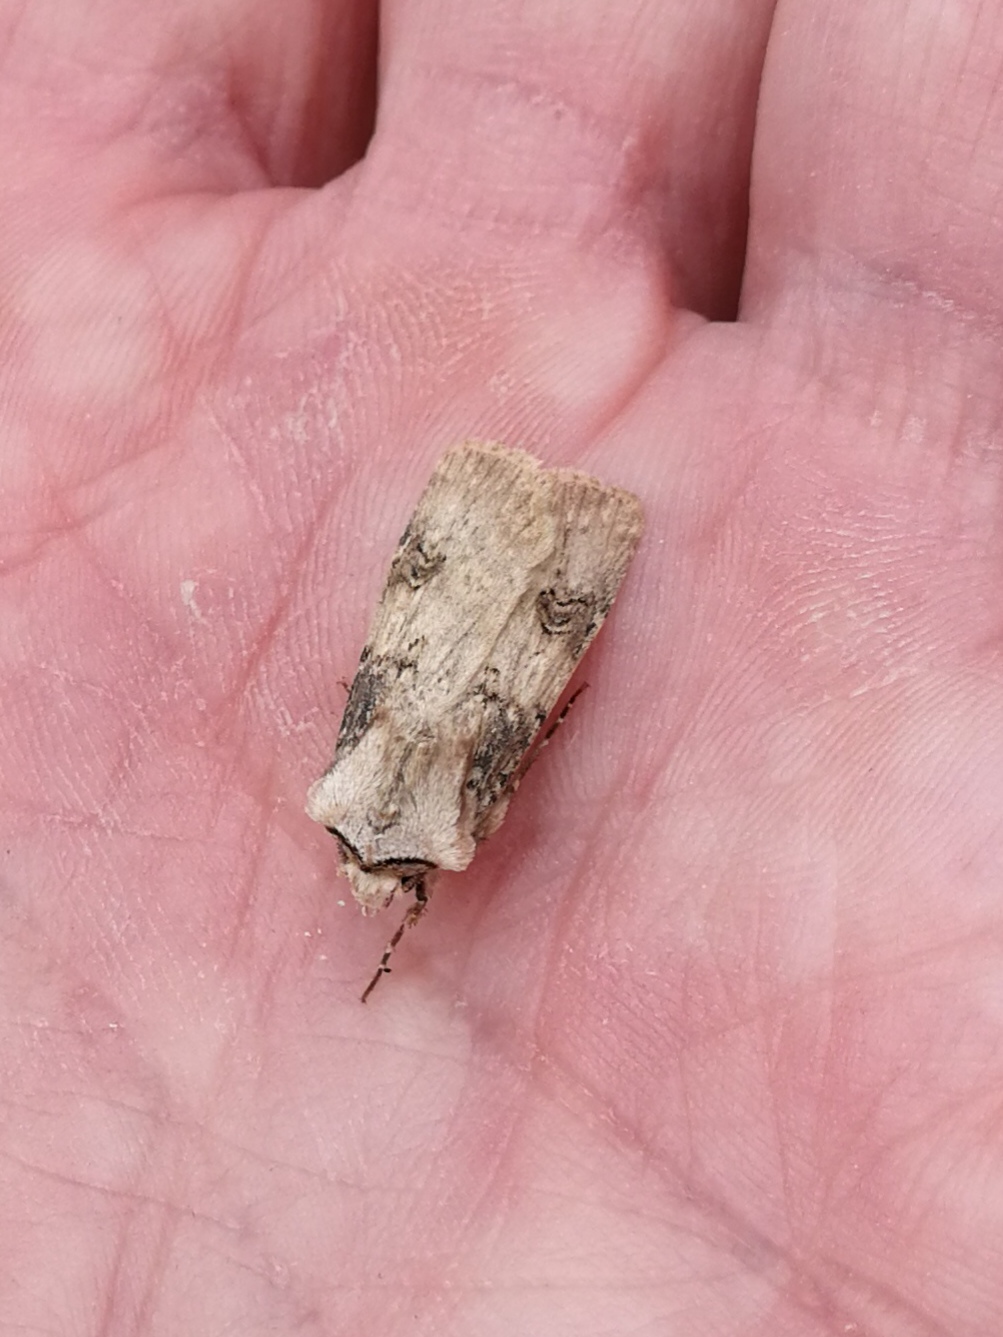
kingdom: Animalia
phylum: Arthropoda
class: Insecta
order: Lepidoptera
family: Noctuidae
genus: Agrotis
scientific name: Agrotis puta
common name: Shuttle-shaped dart
